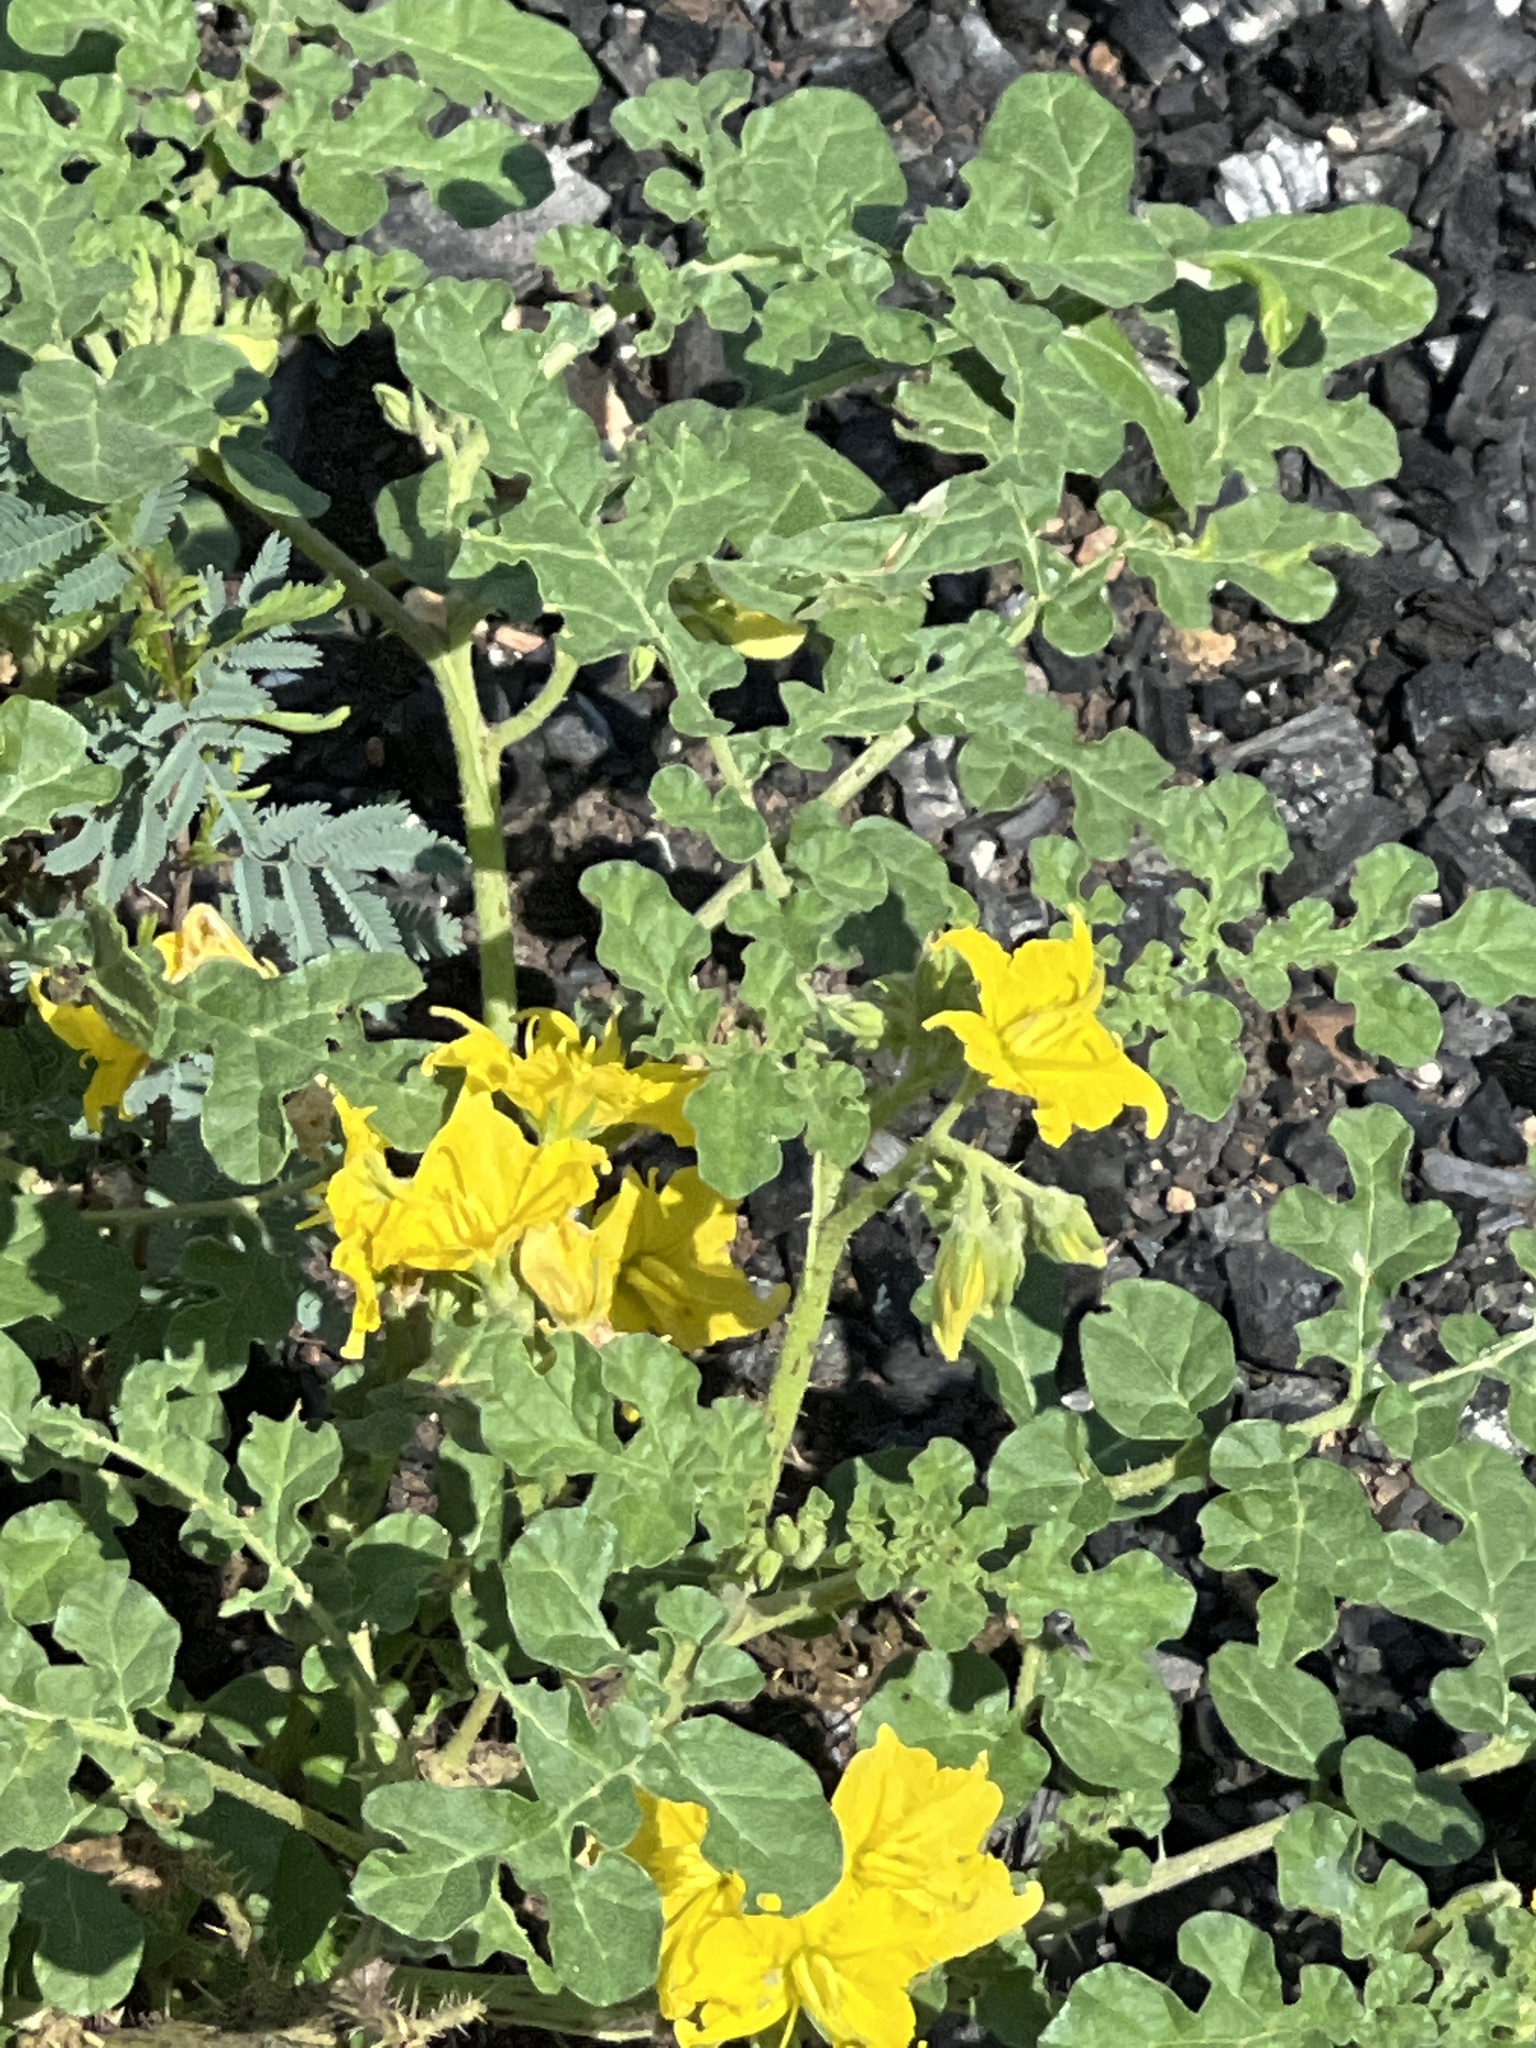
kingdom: Plantae
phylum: Tracheophyta
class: Magnoliopsida
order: Solanales
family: Solanaceae
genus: Solanum
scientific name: Solanum angustifolium
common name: Buffalobur nightshade
